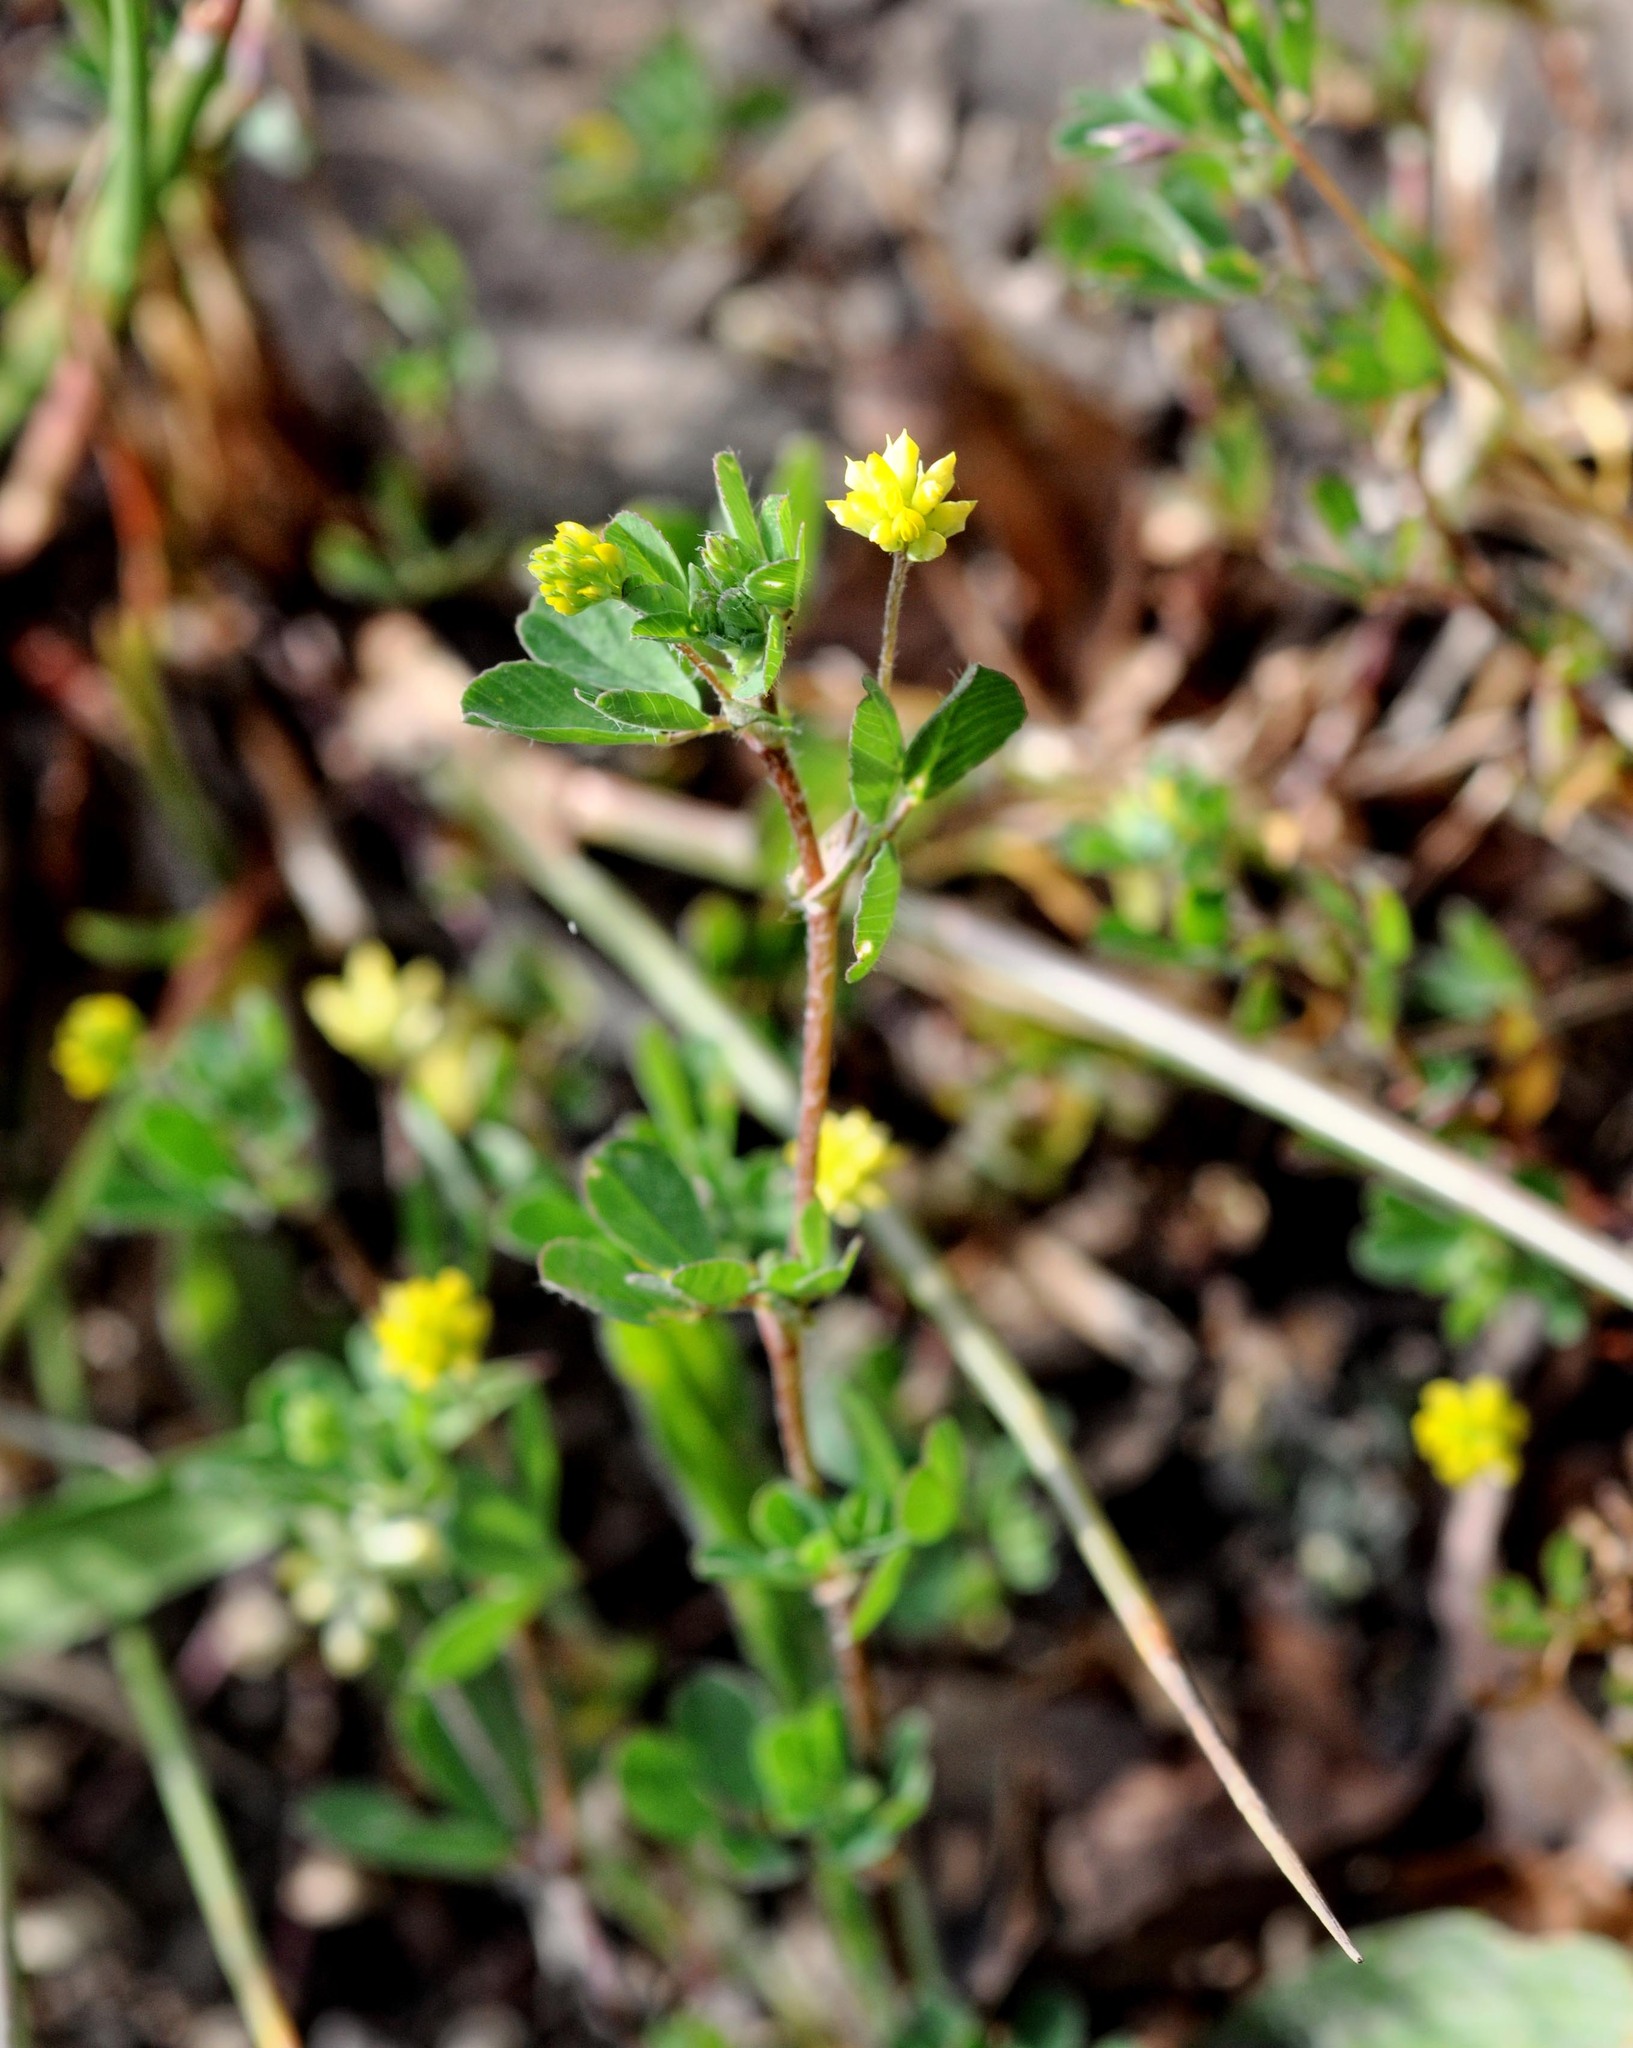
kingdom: Plantae
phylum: Tracheophyta
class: Magnoliopsida
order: Fabales
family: Fabaceae
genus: Trifolium
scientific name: Trifolium dubium
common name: Suckling clover
